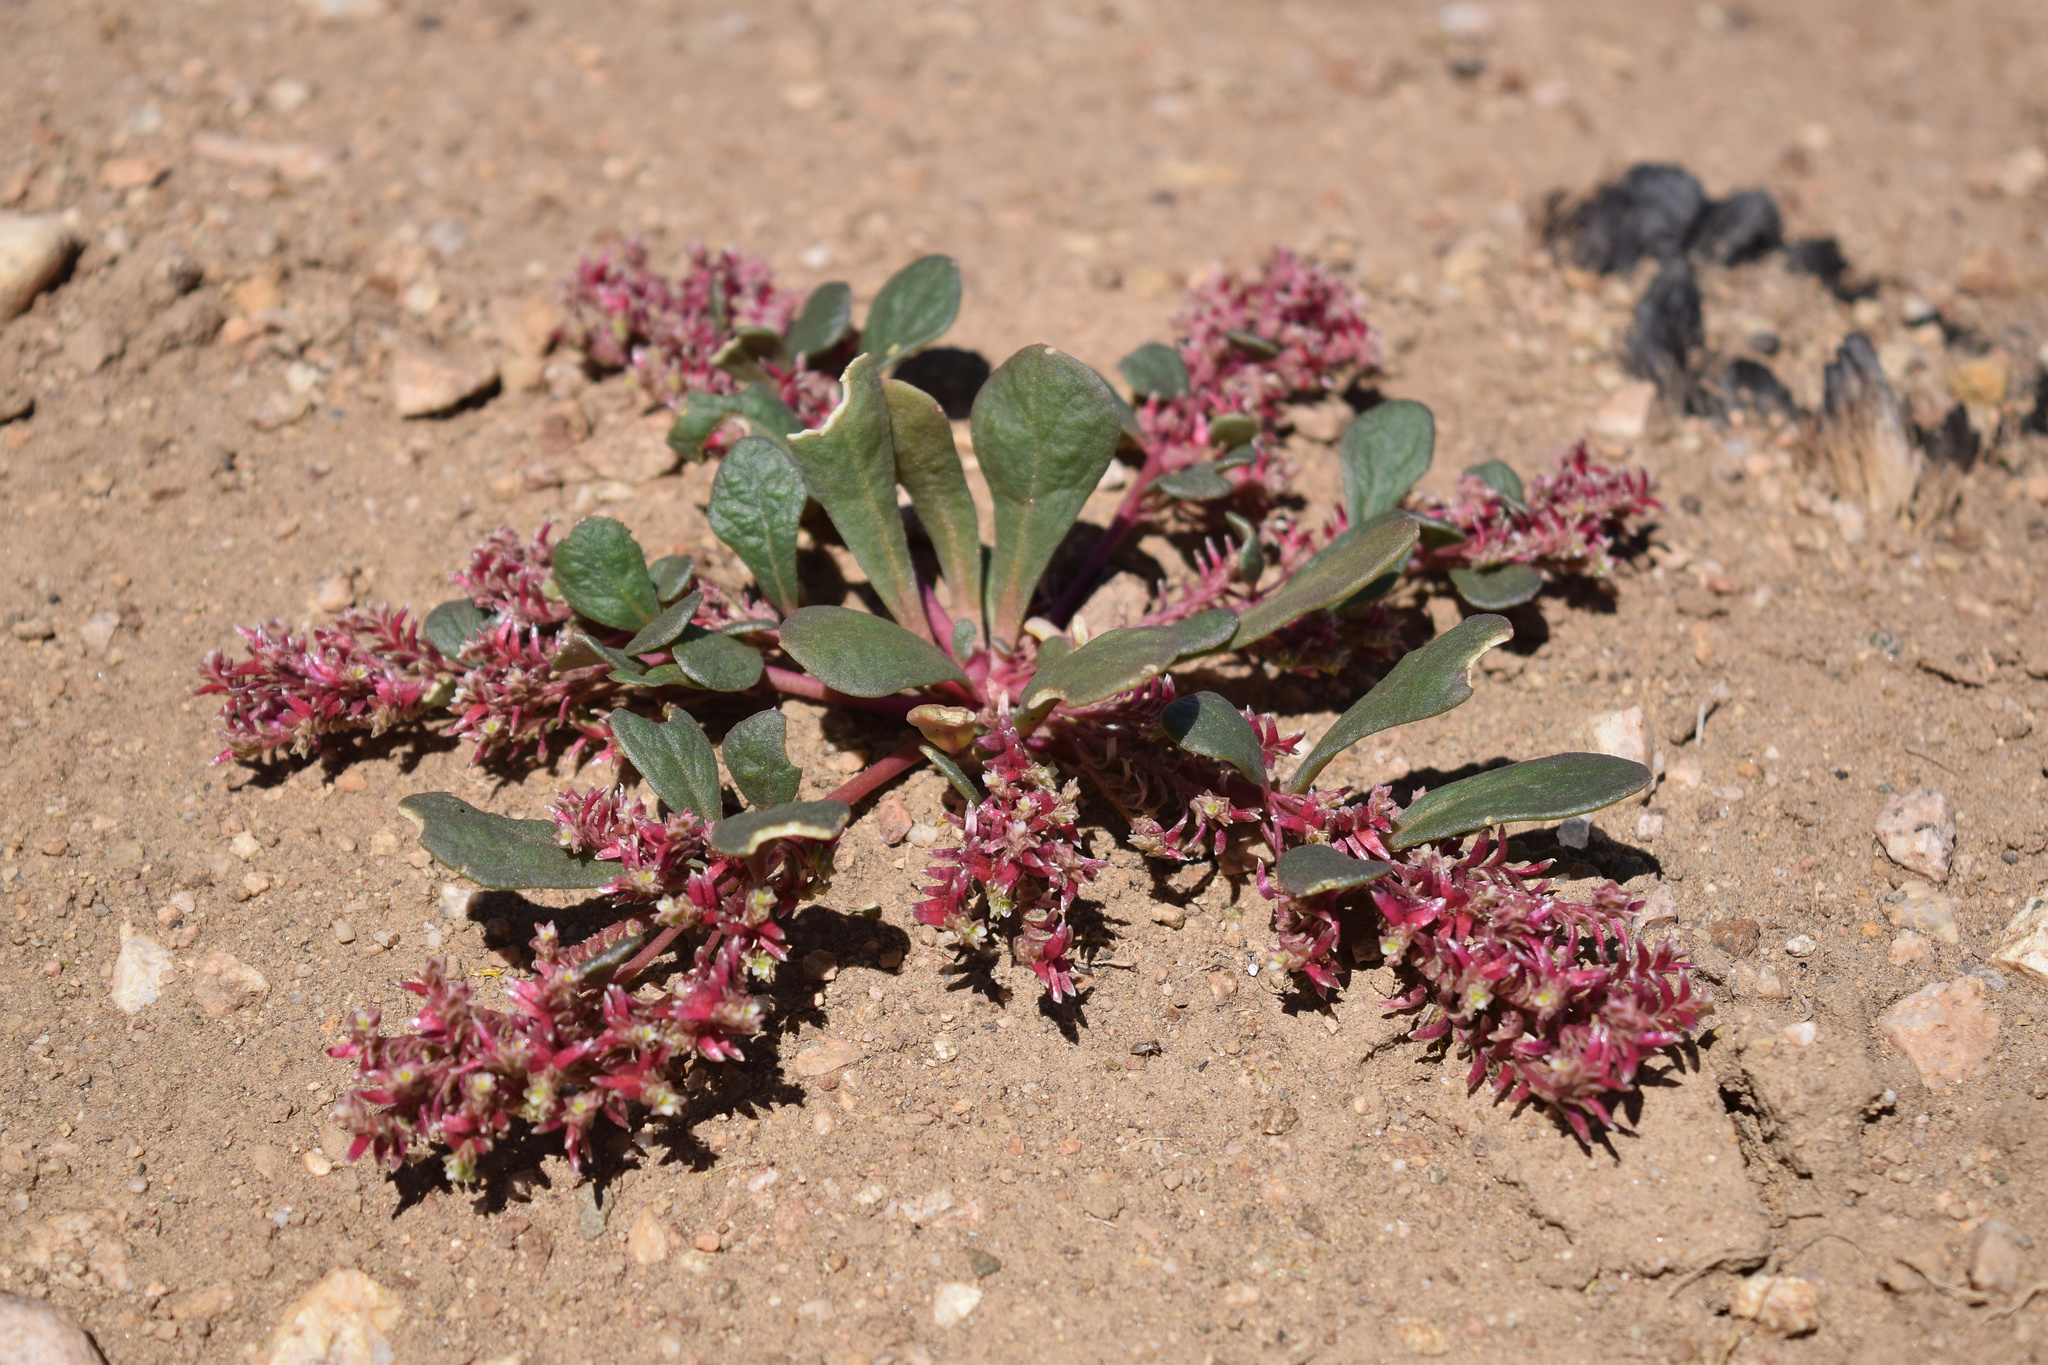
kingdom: Plantae
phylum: Tracheophyta
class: Magnoliopsida
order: Caryophyllales
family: Montiaceae
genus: Calyptridium
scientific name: Calyptridium monandrum
